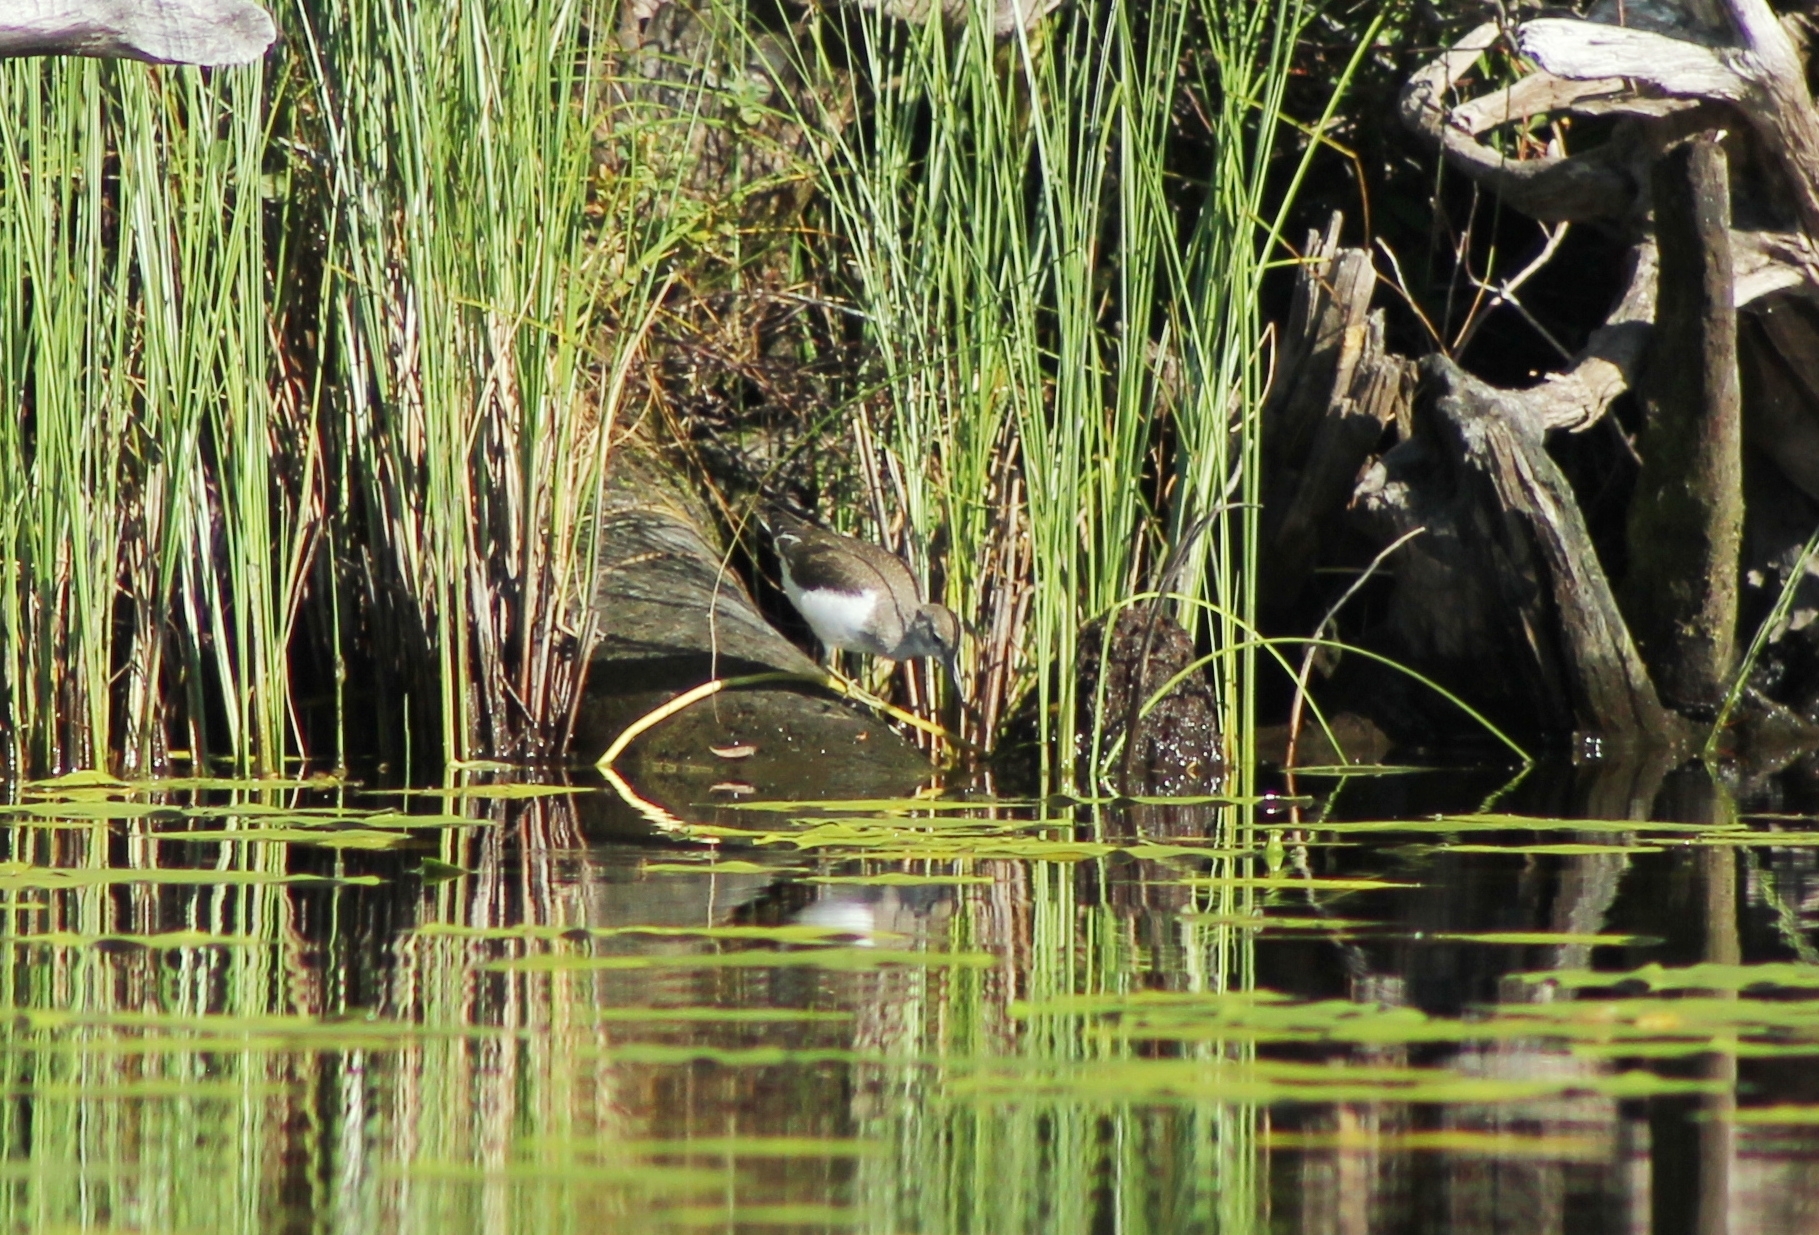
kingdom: Animalia
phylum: Chordata
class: Aves
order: Charadriiformes
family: Scolopacidae
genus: Actitis
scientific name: Actitis hypoleucos
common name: Common sandpiper
